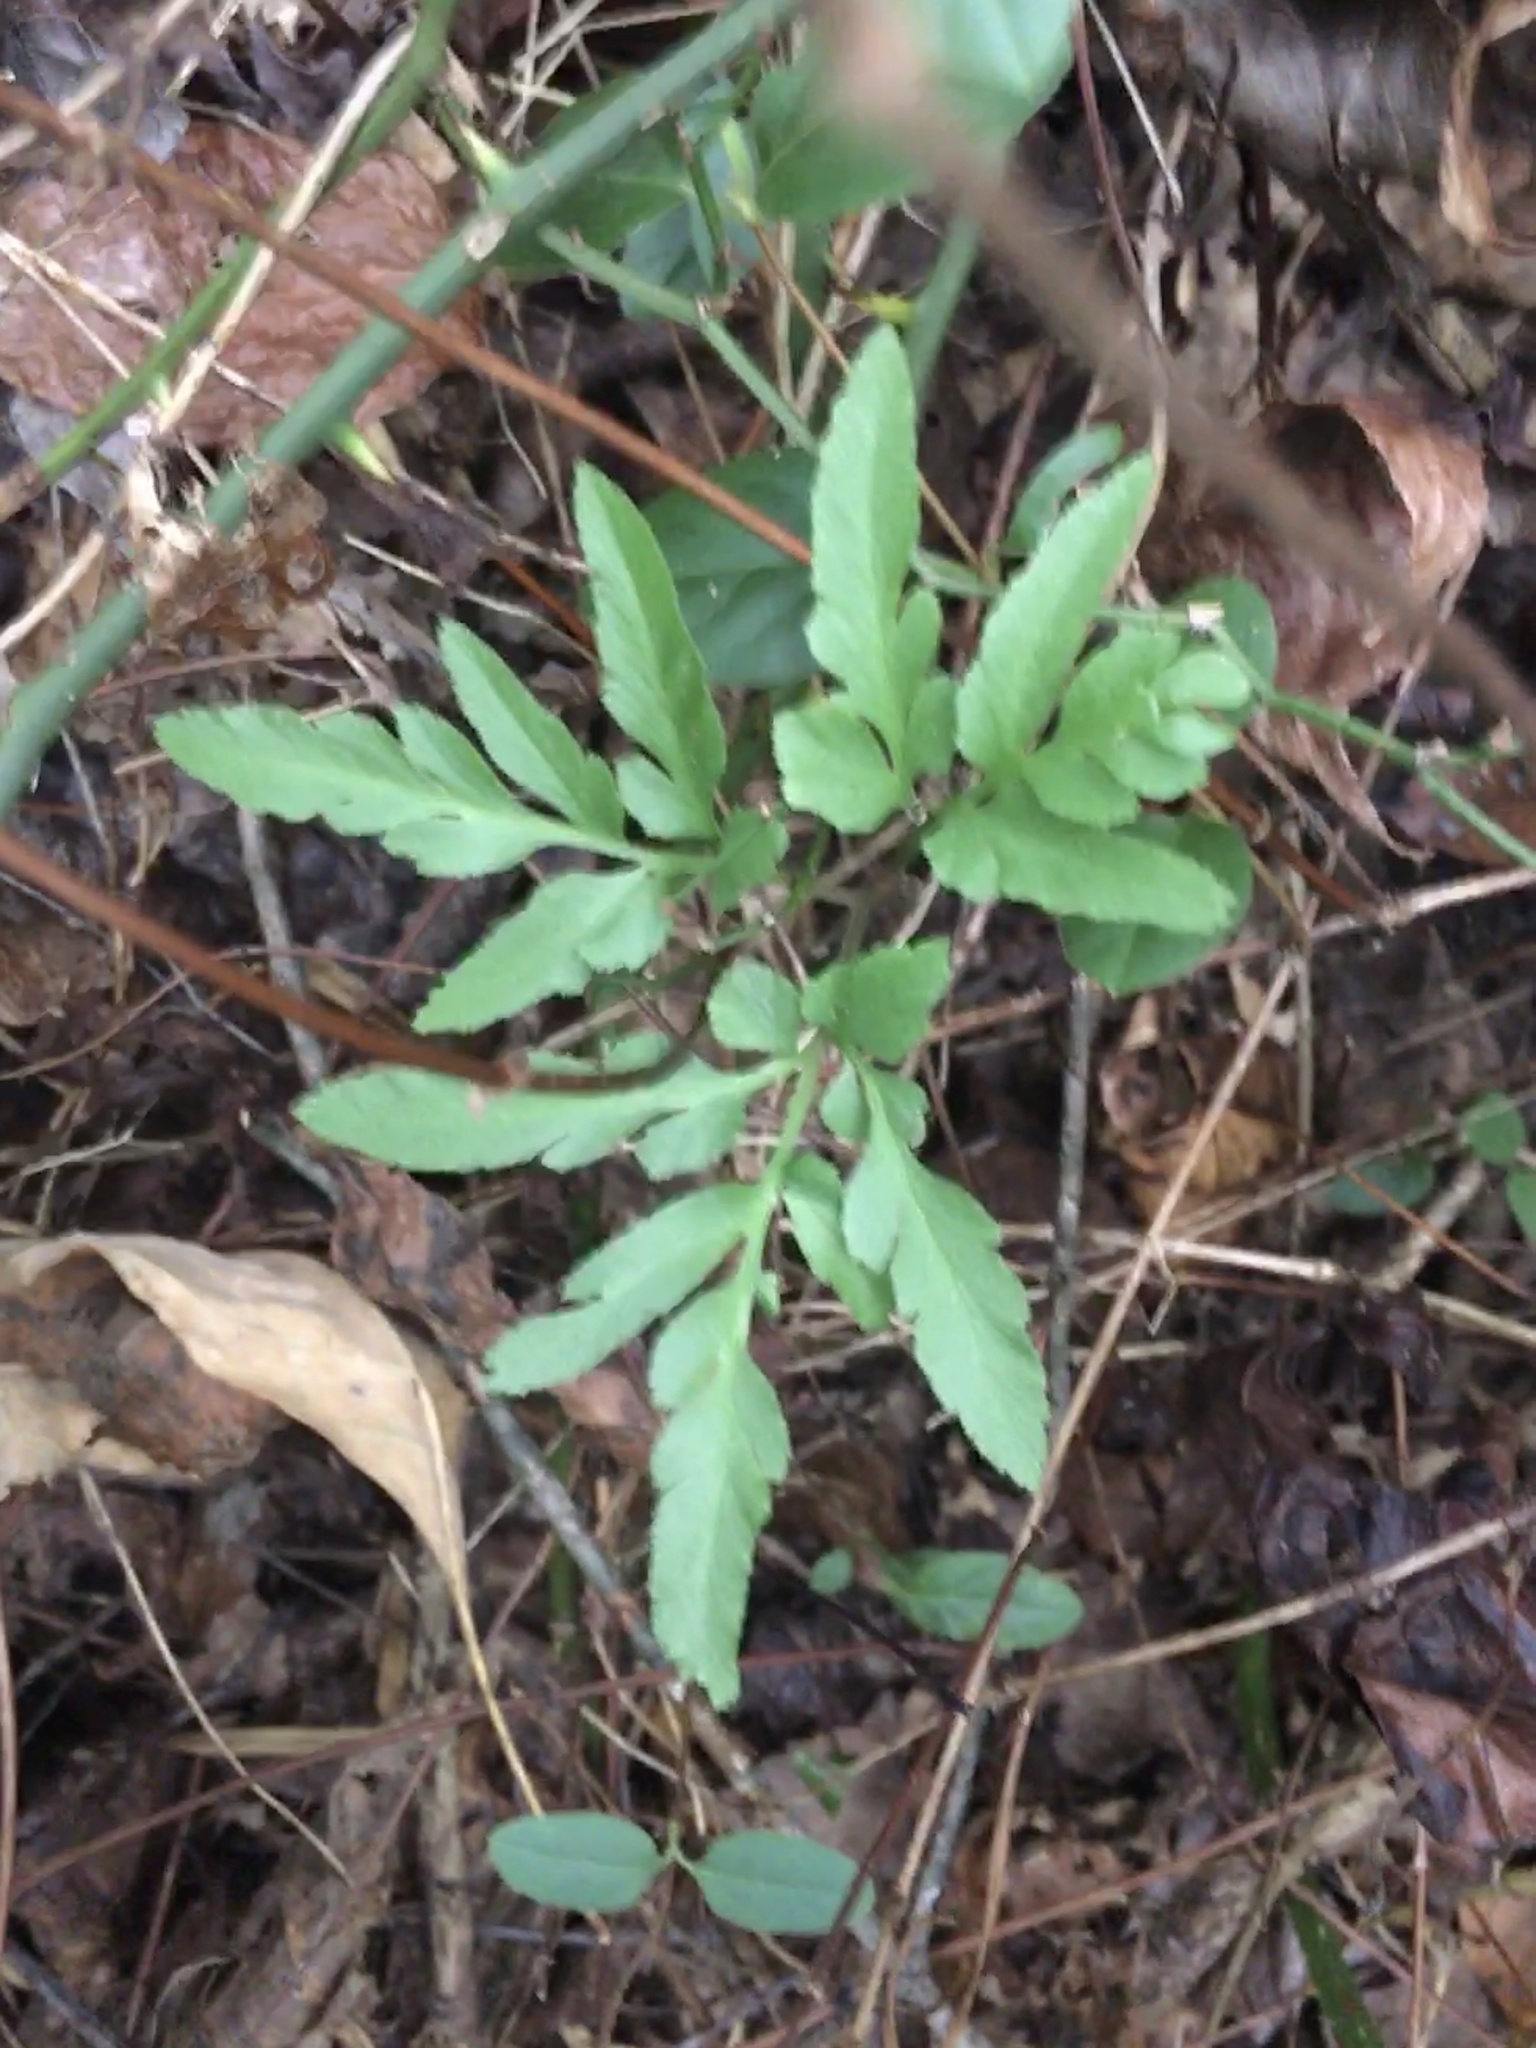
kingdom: Plantae
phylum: Tracheophyta
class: Polypodiopsida
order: Ophioglossales
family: Ophioglossaceae
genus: Sceptridium
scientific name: Sceptridium biternatum
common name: Sparse-lobed grapefern
